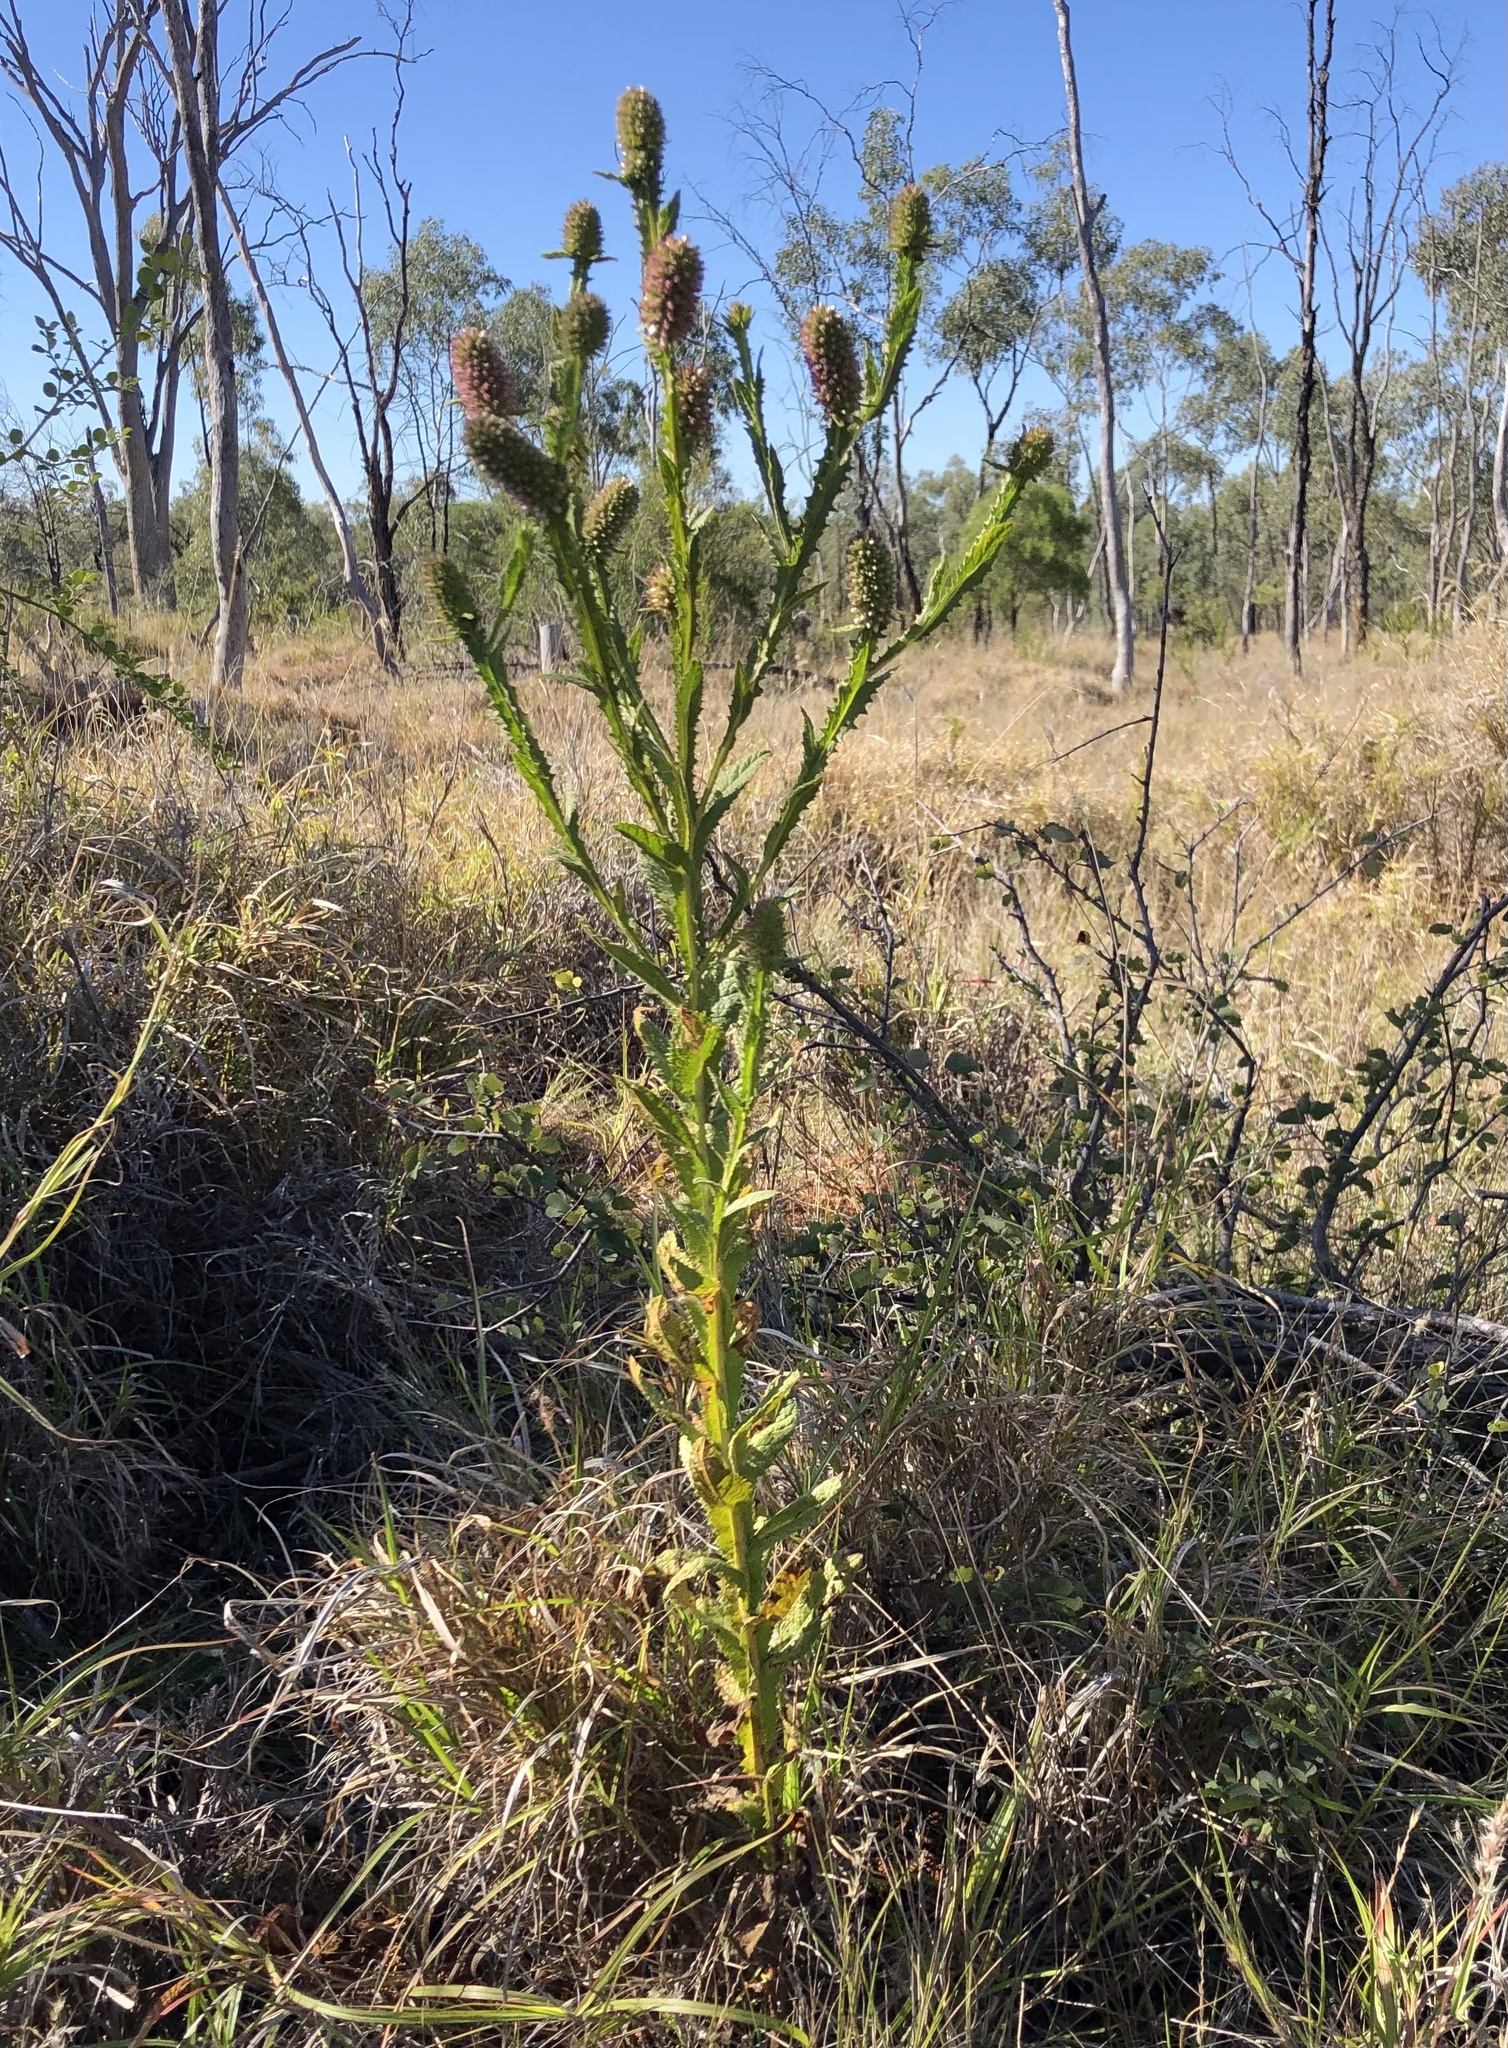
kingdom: Plantae
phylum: Tracheophyta
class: Magnoliopsida
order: Asterales
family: Asteraceae
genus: Pterocaulon
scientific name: Pterocaulon serrulatum
